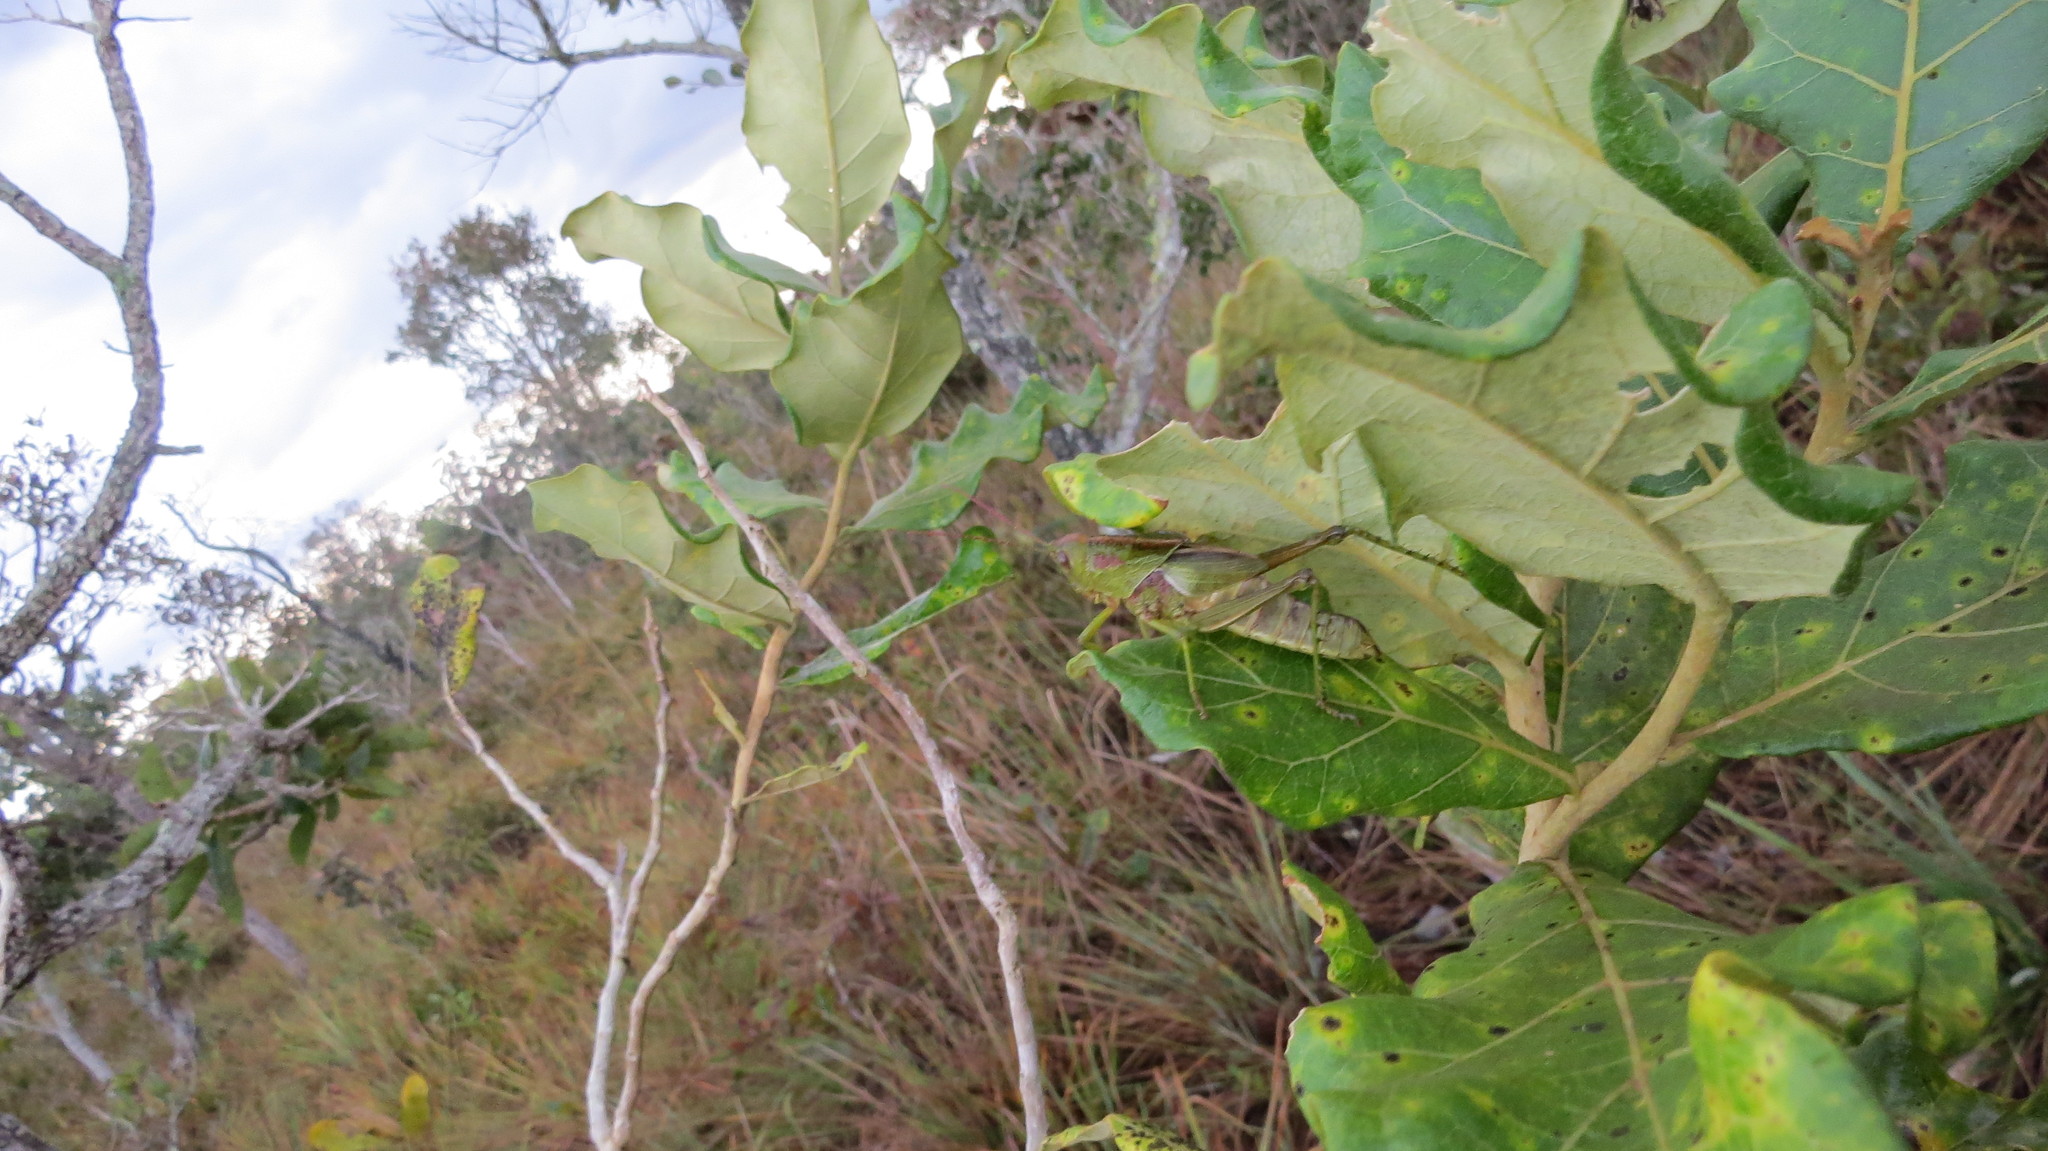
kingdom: Animalia
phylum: Arthropoda
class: Insecta
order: Orthoptera
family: Romaleidae
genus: Staleochlora
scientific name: Staleochlora humilis
